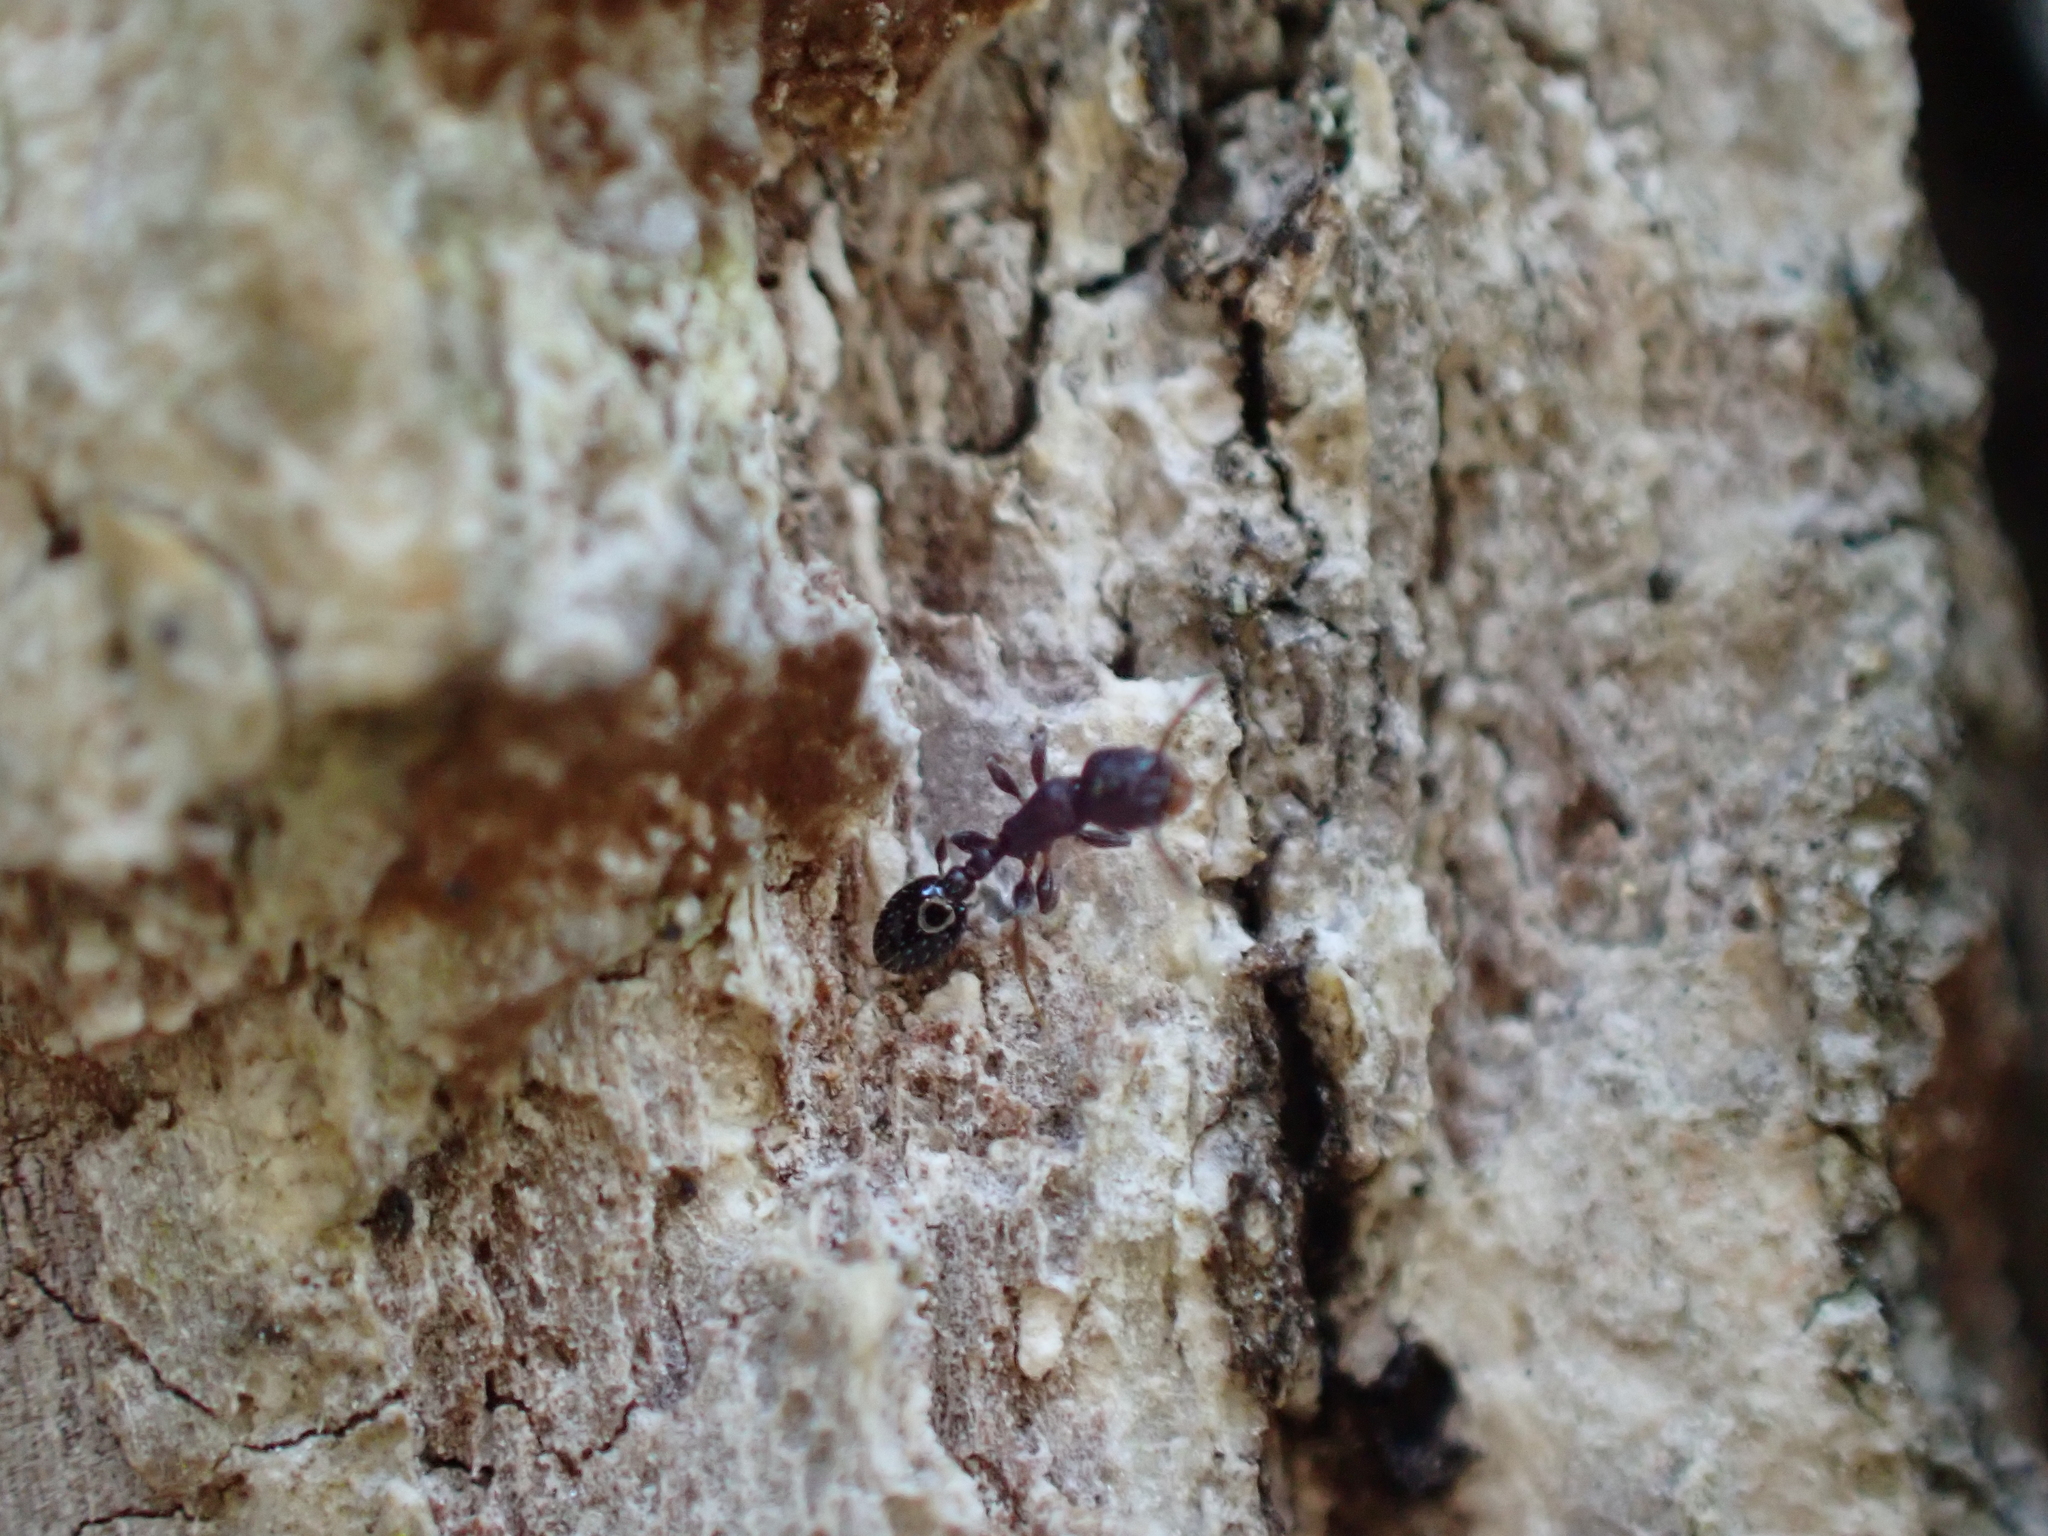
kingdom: Animalia
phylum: Arthropoda
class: Insecta
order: Hymenoptera
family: Formicidae
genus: Leptothorax
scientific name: Leptothorax schaumii
